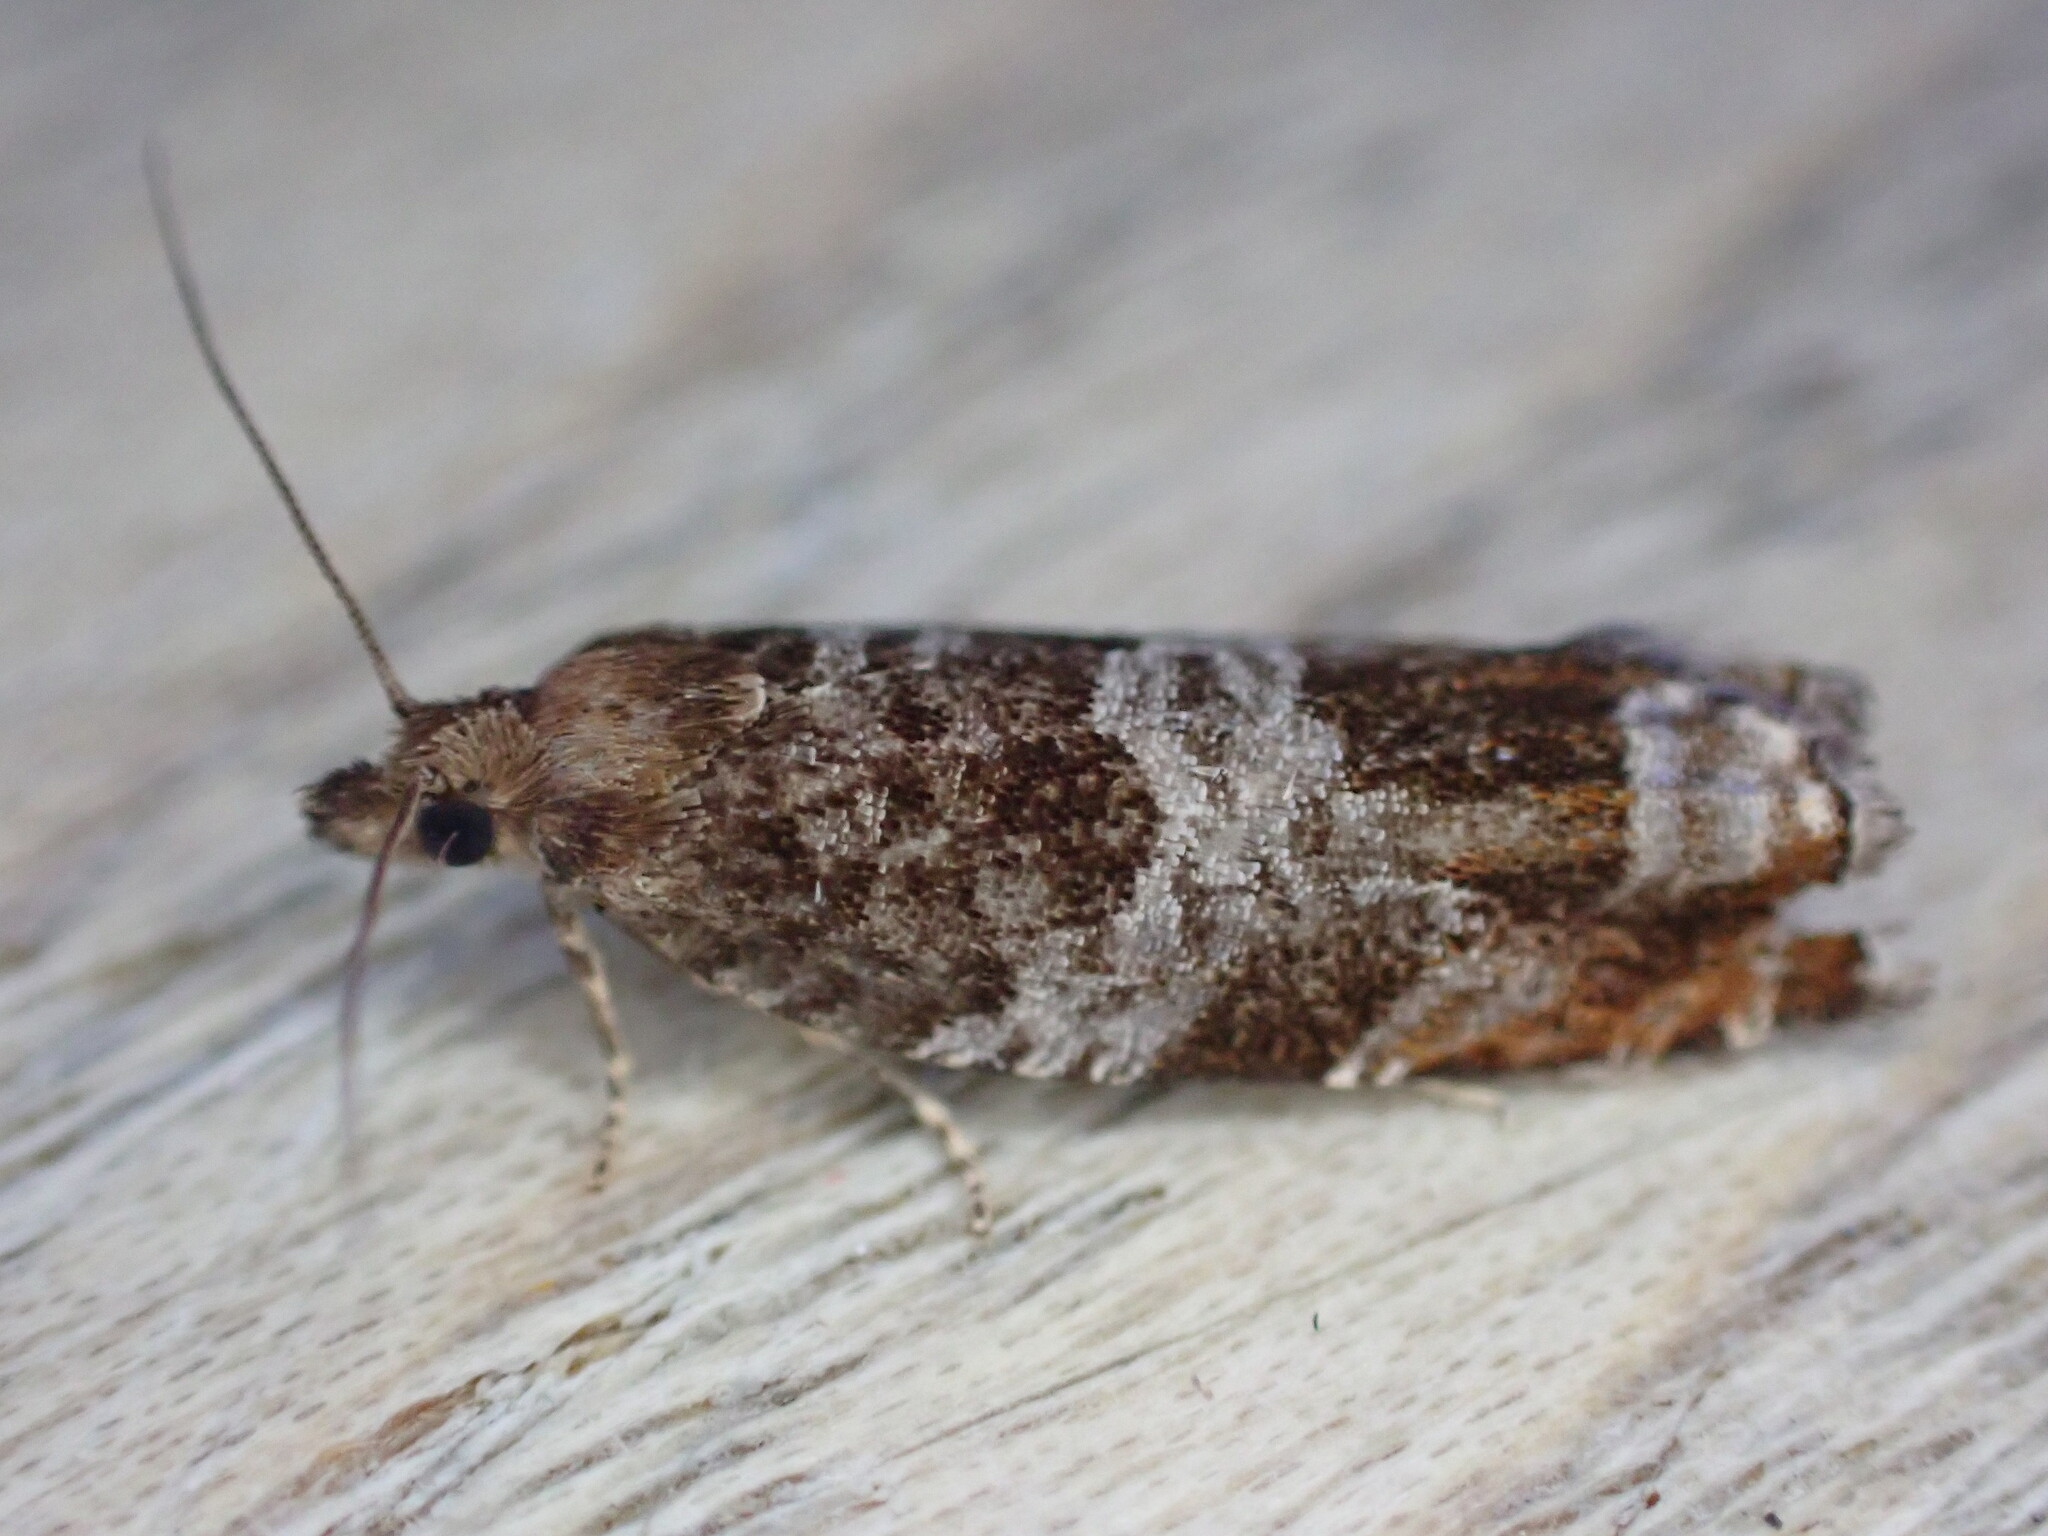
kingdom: Animalia
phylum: Arthropoda
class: Insecta
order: Lepidoptera
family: Tortricidae
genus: Ancylis
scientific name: Ancylis achatana
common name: Triangle-marked roller
